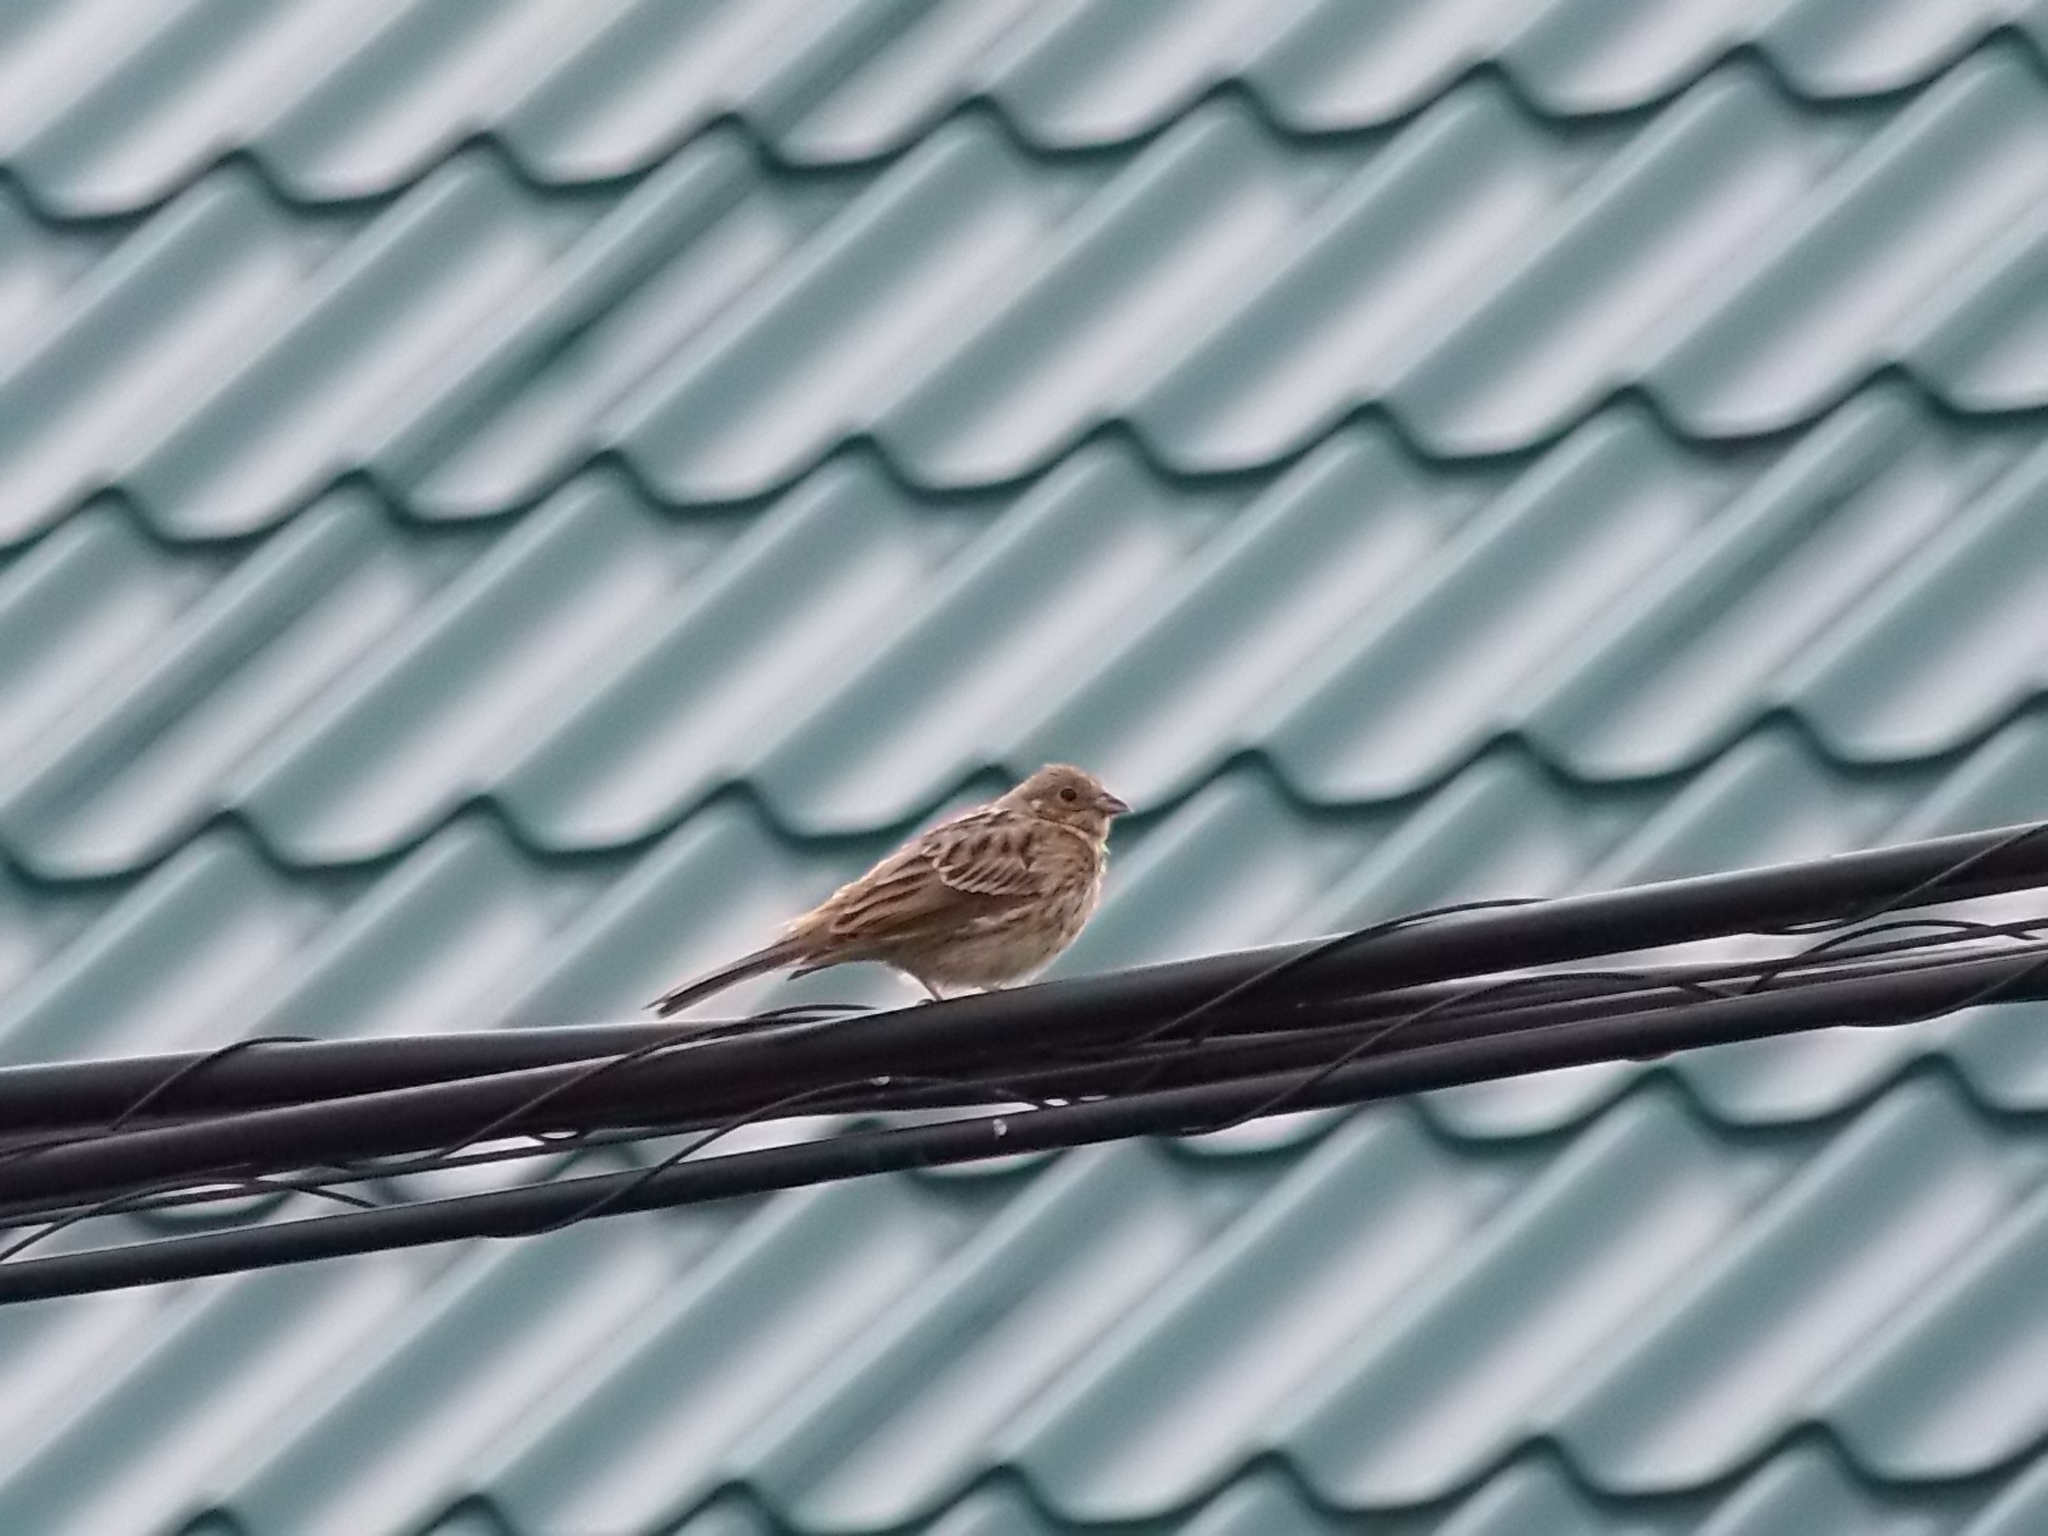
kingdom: Animalia
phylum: Chordata
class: Aves
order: Passeriformes
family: Emberizidae
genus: Emberiza
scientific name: Emberiza citrinella
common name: Yellowhammer
